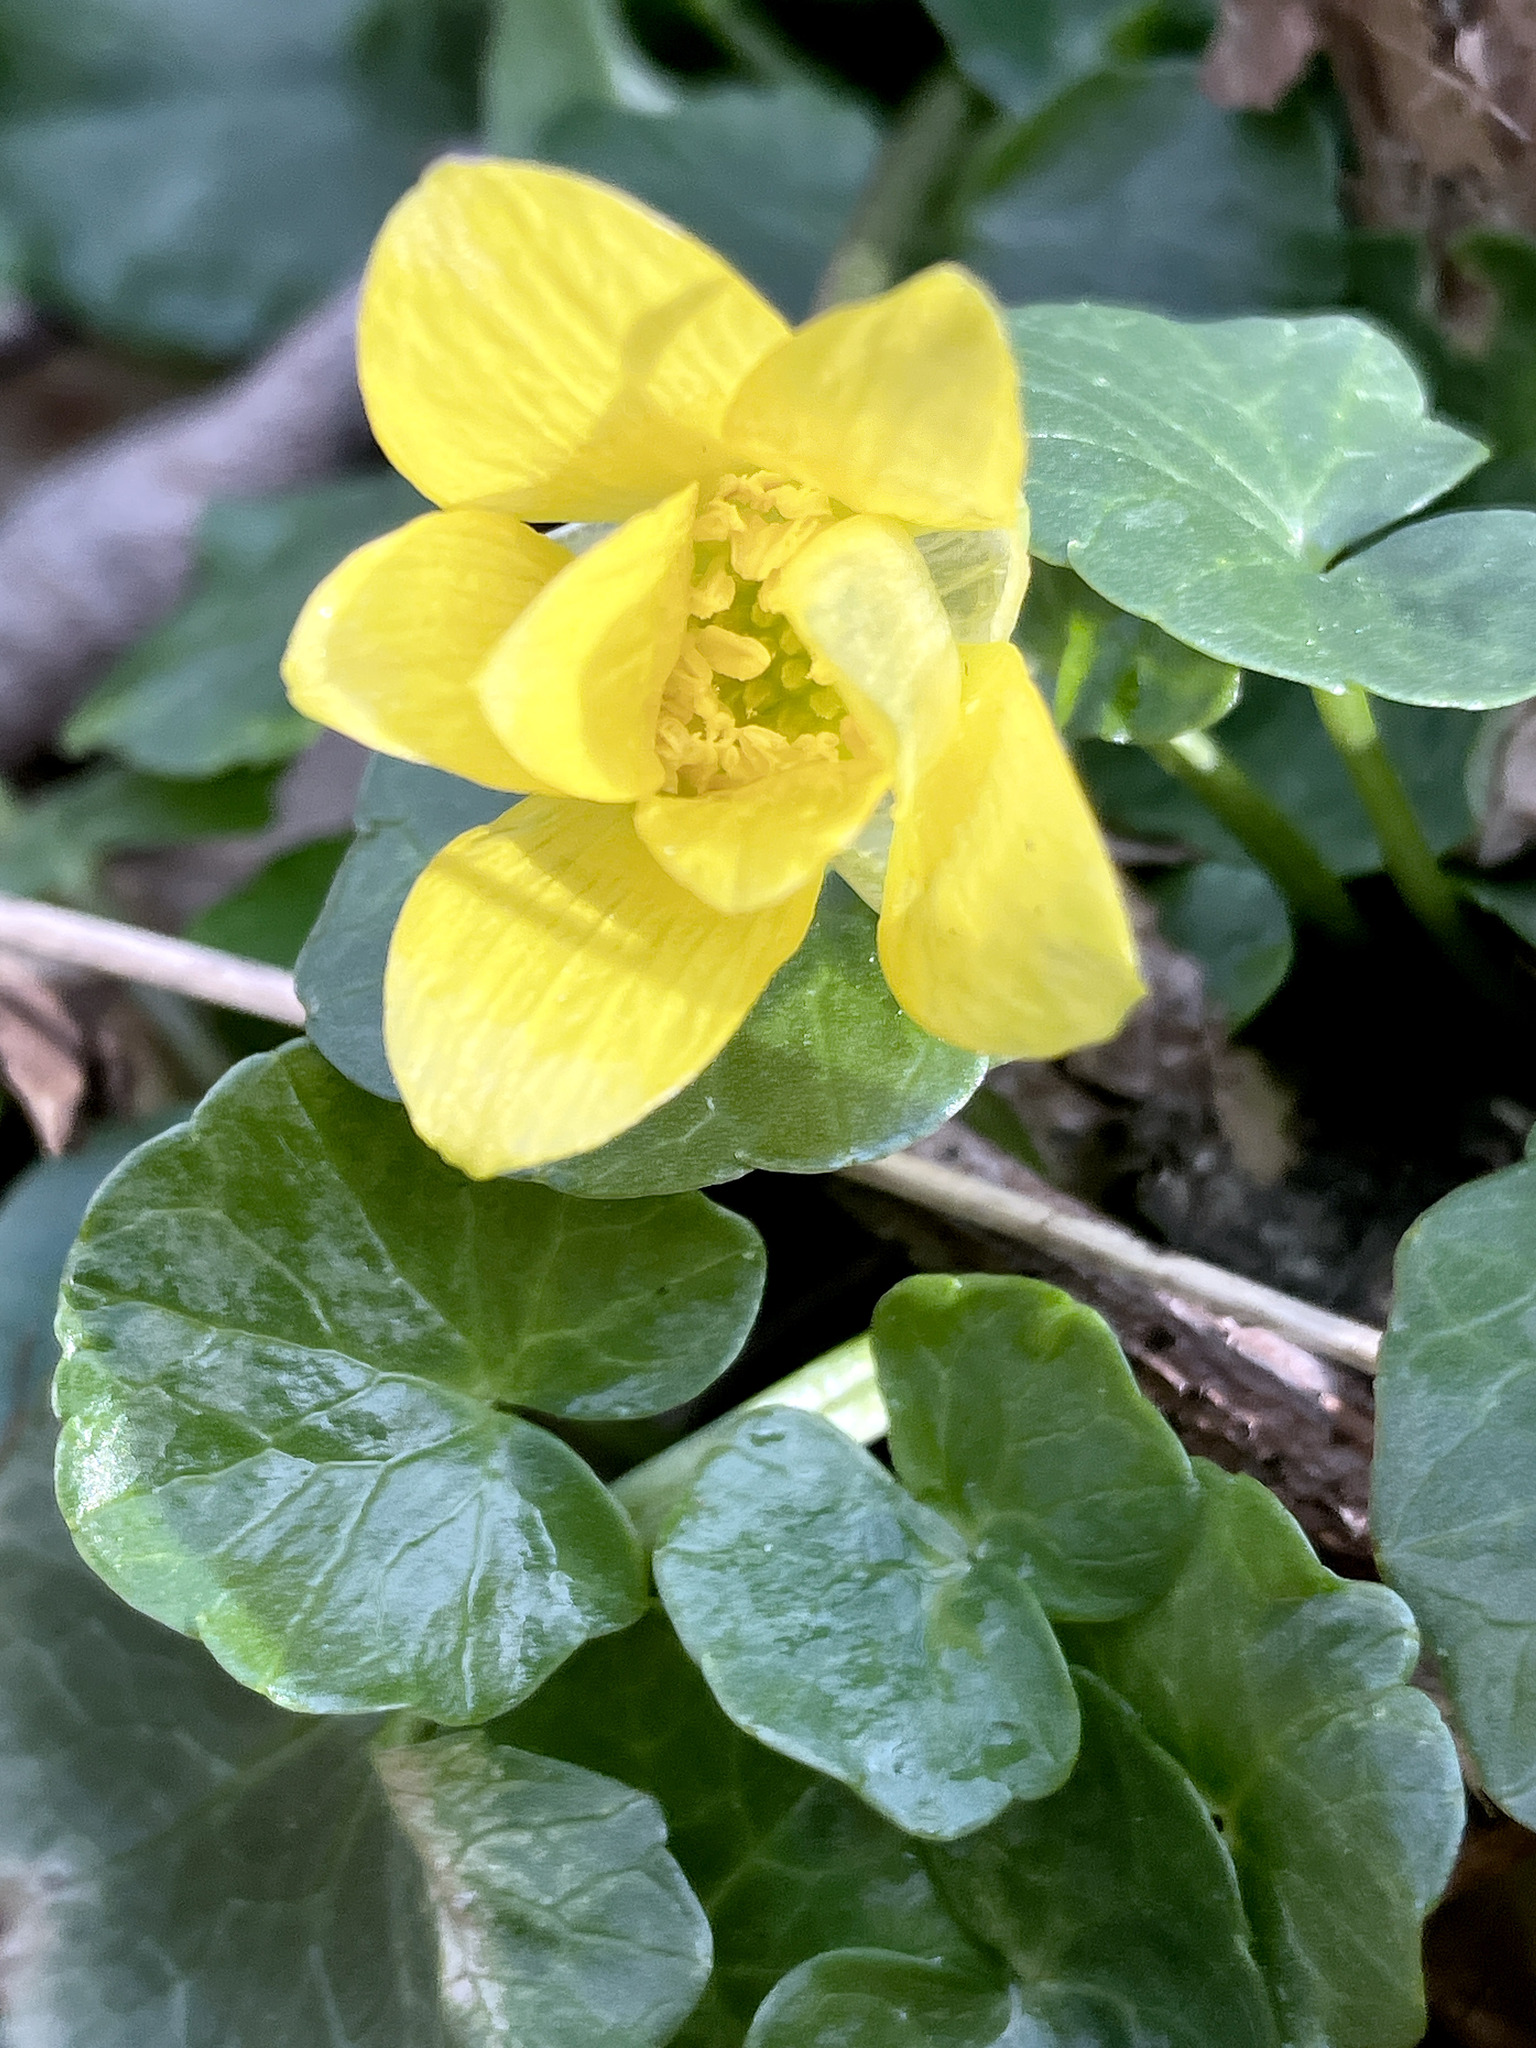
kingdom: Plantae
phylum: Tracheophyta
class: Magnoliopsida
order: Ranunculales
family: Ranunculaceae
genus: Ficaria
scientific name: Ficaria verna
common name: Lesser celandine
